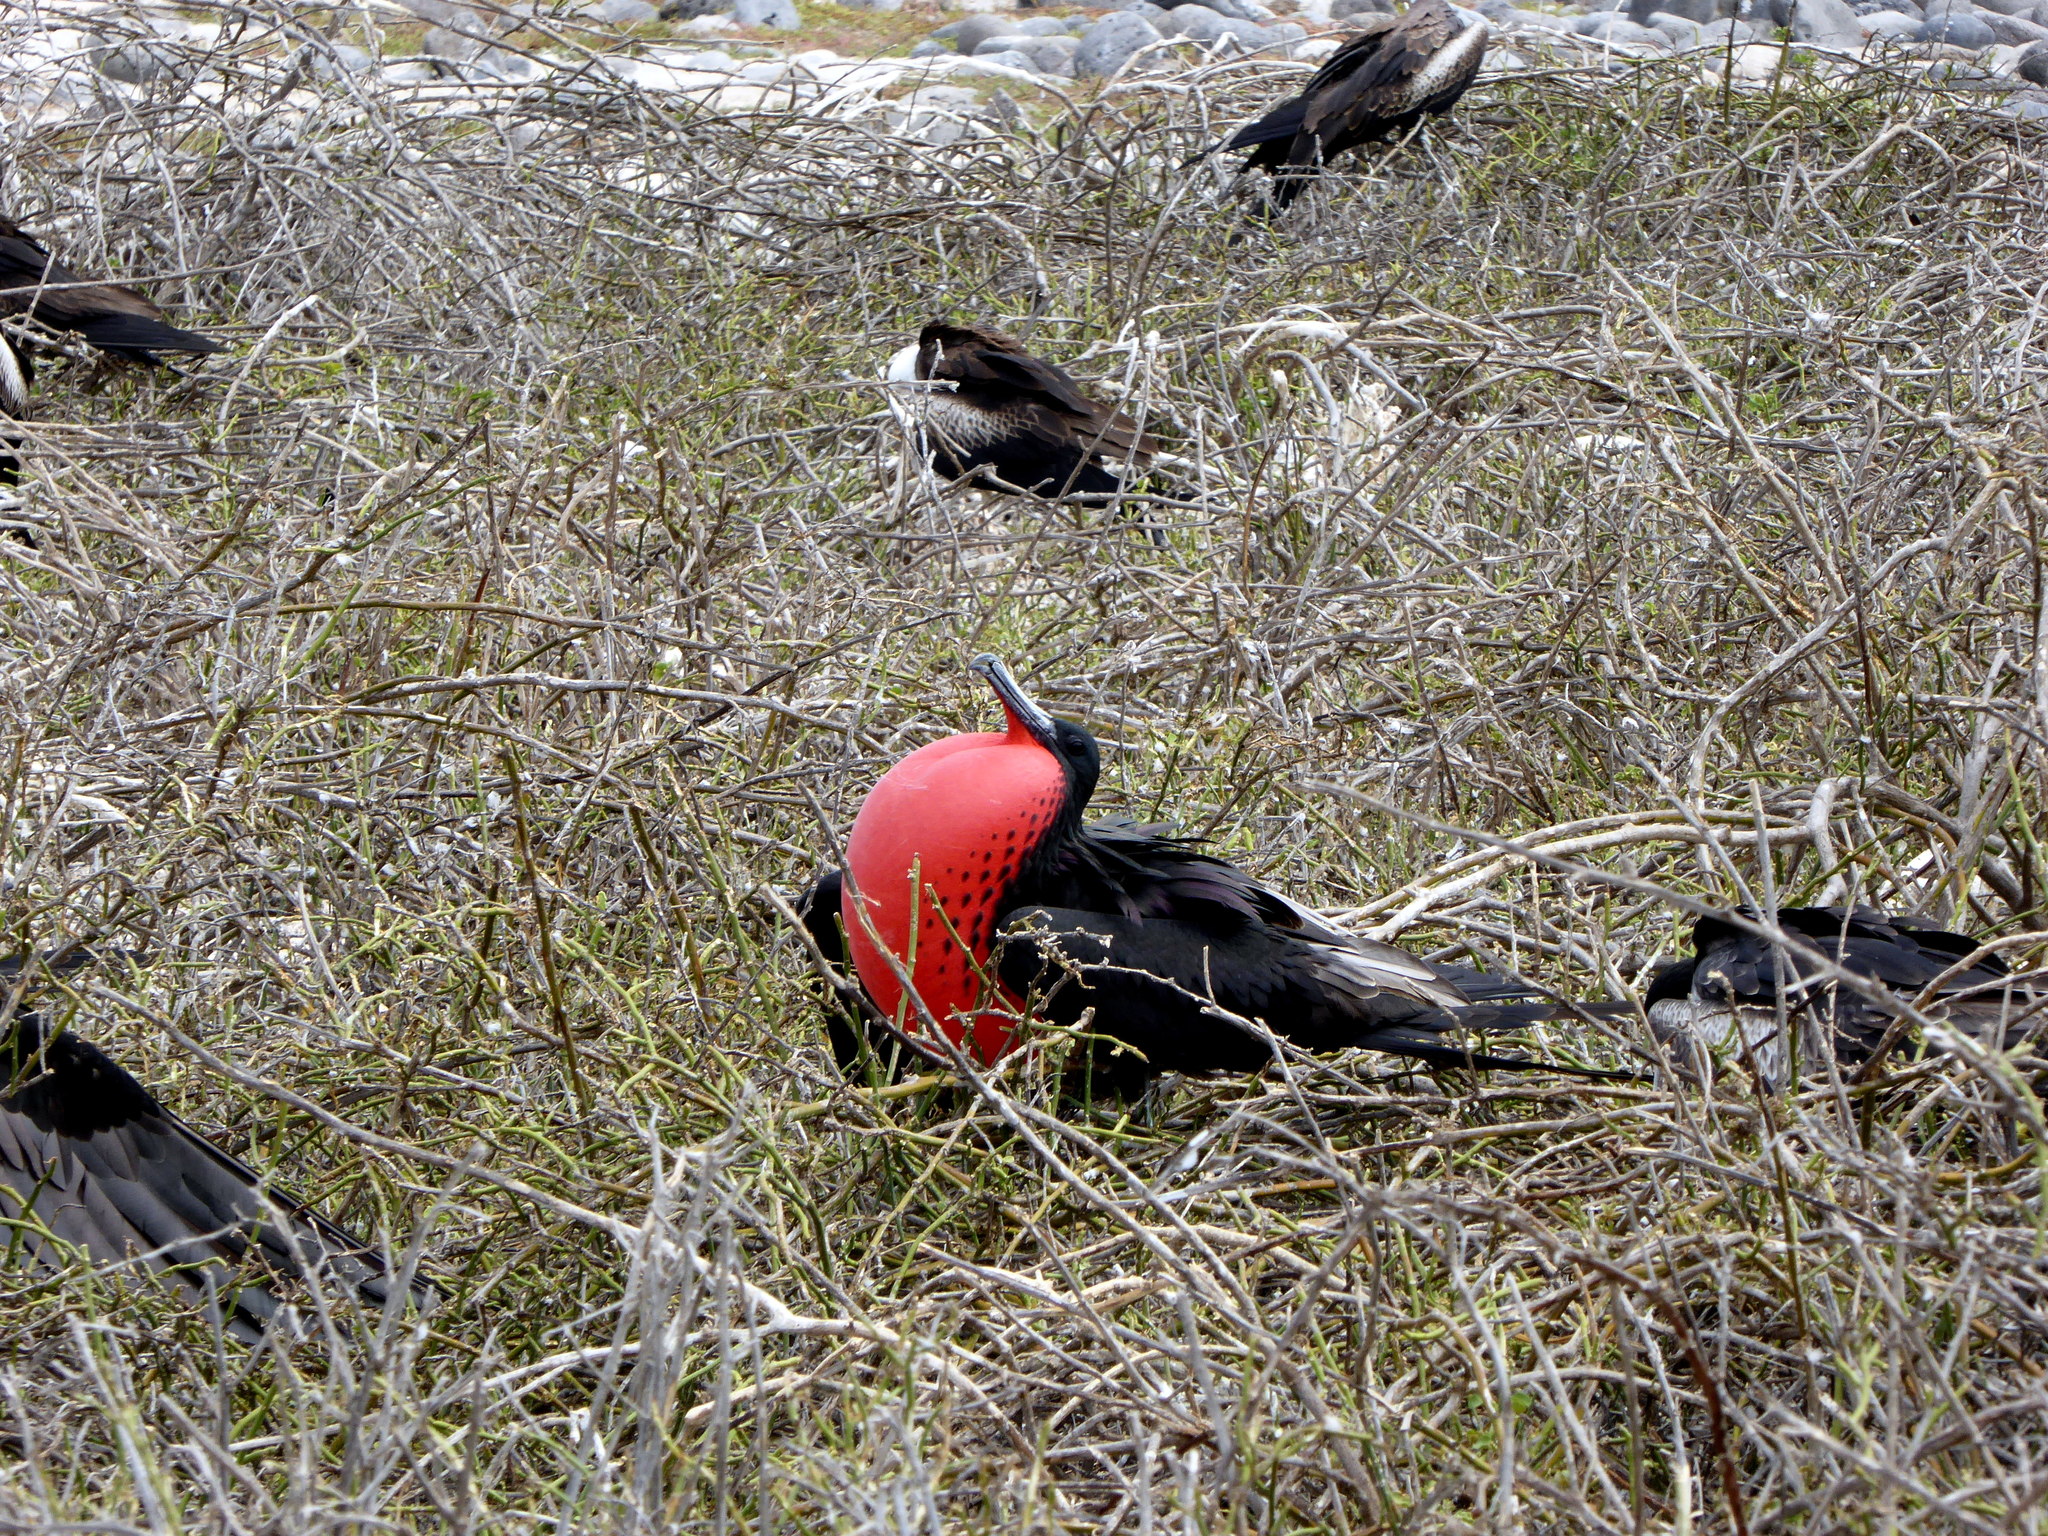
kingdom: Animalia
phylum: Chordata
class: Aves
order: Suliformes
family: Fregatidae
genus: Fregata
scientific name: Fregata magnificens
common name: Magnificent frigatebird
